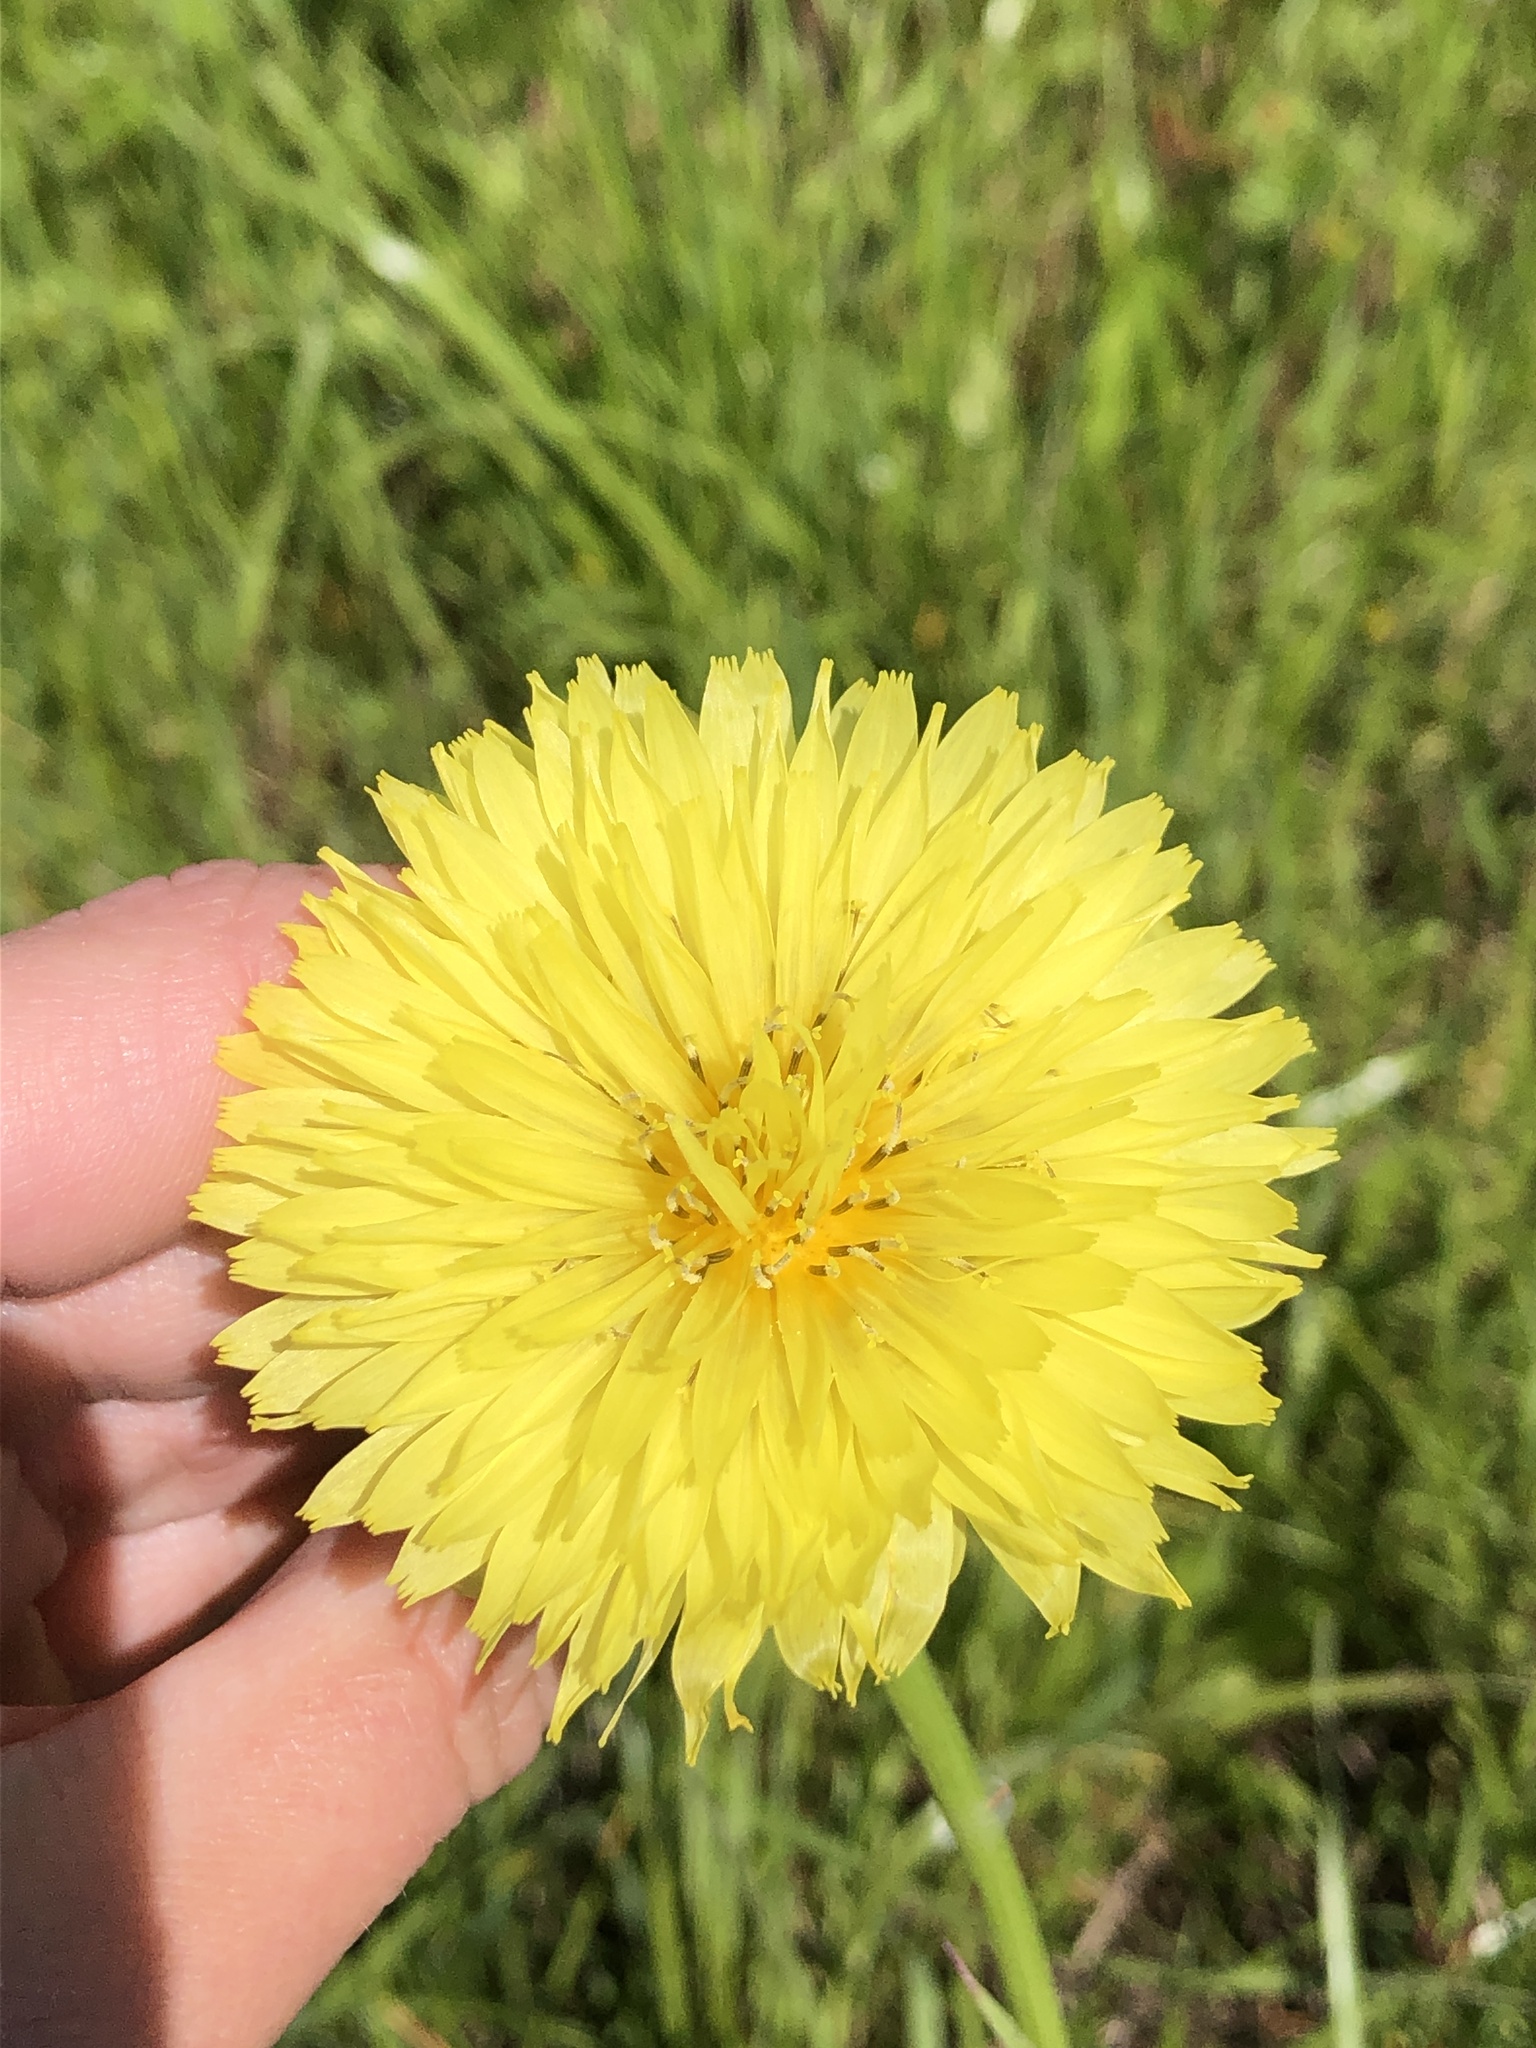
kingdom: Plantae
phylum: Tracheophyta
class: Magnoliopsida
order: Asterales
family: Asteraceae
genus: Pyrrhopappus
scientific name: Pyrrhopappus carolinianus
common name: Carolina desert-chicory
